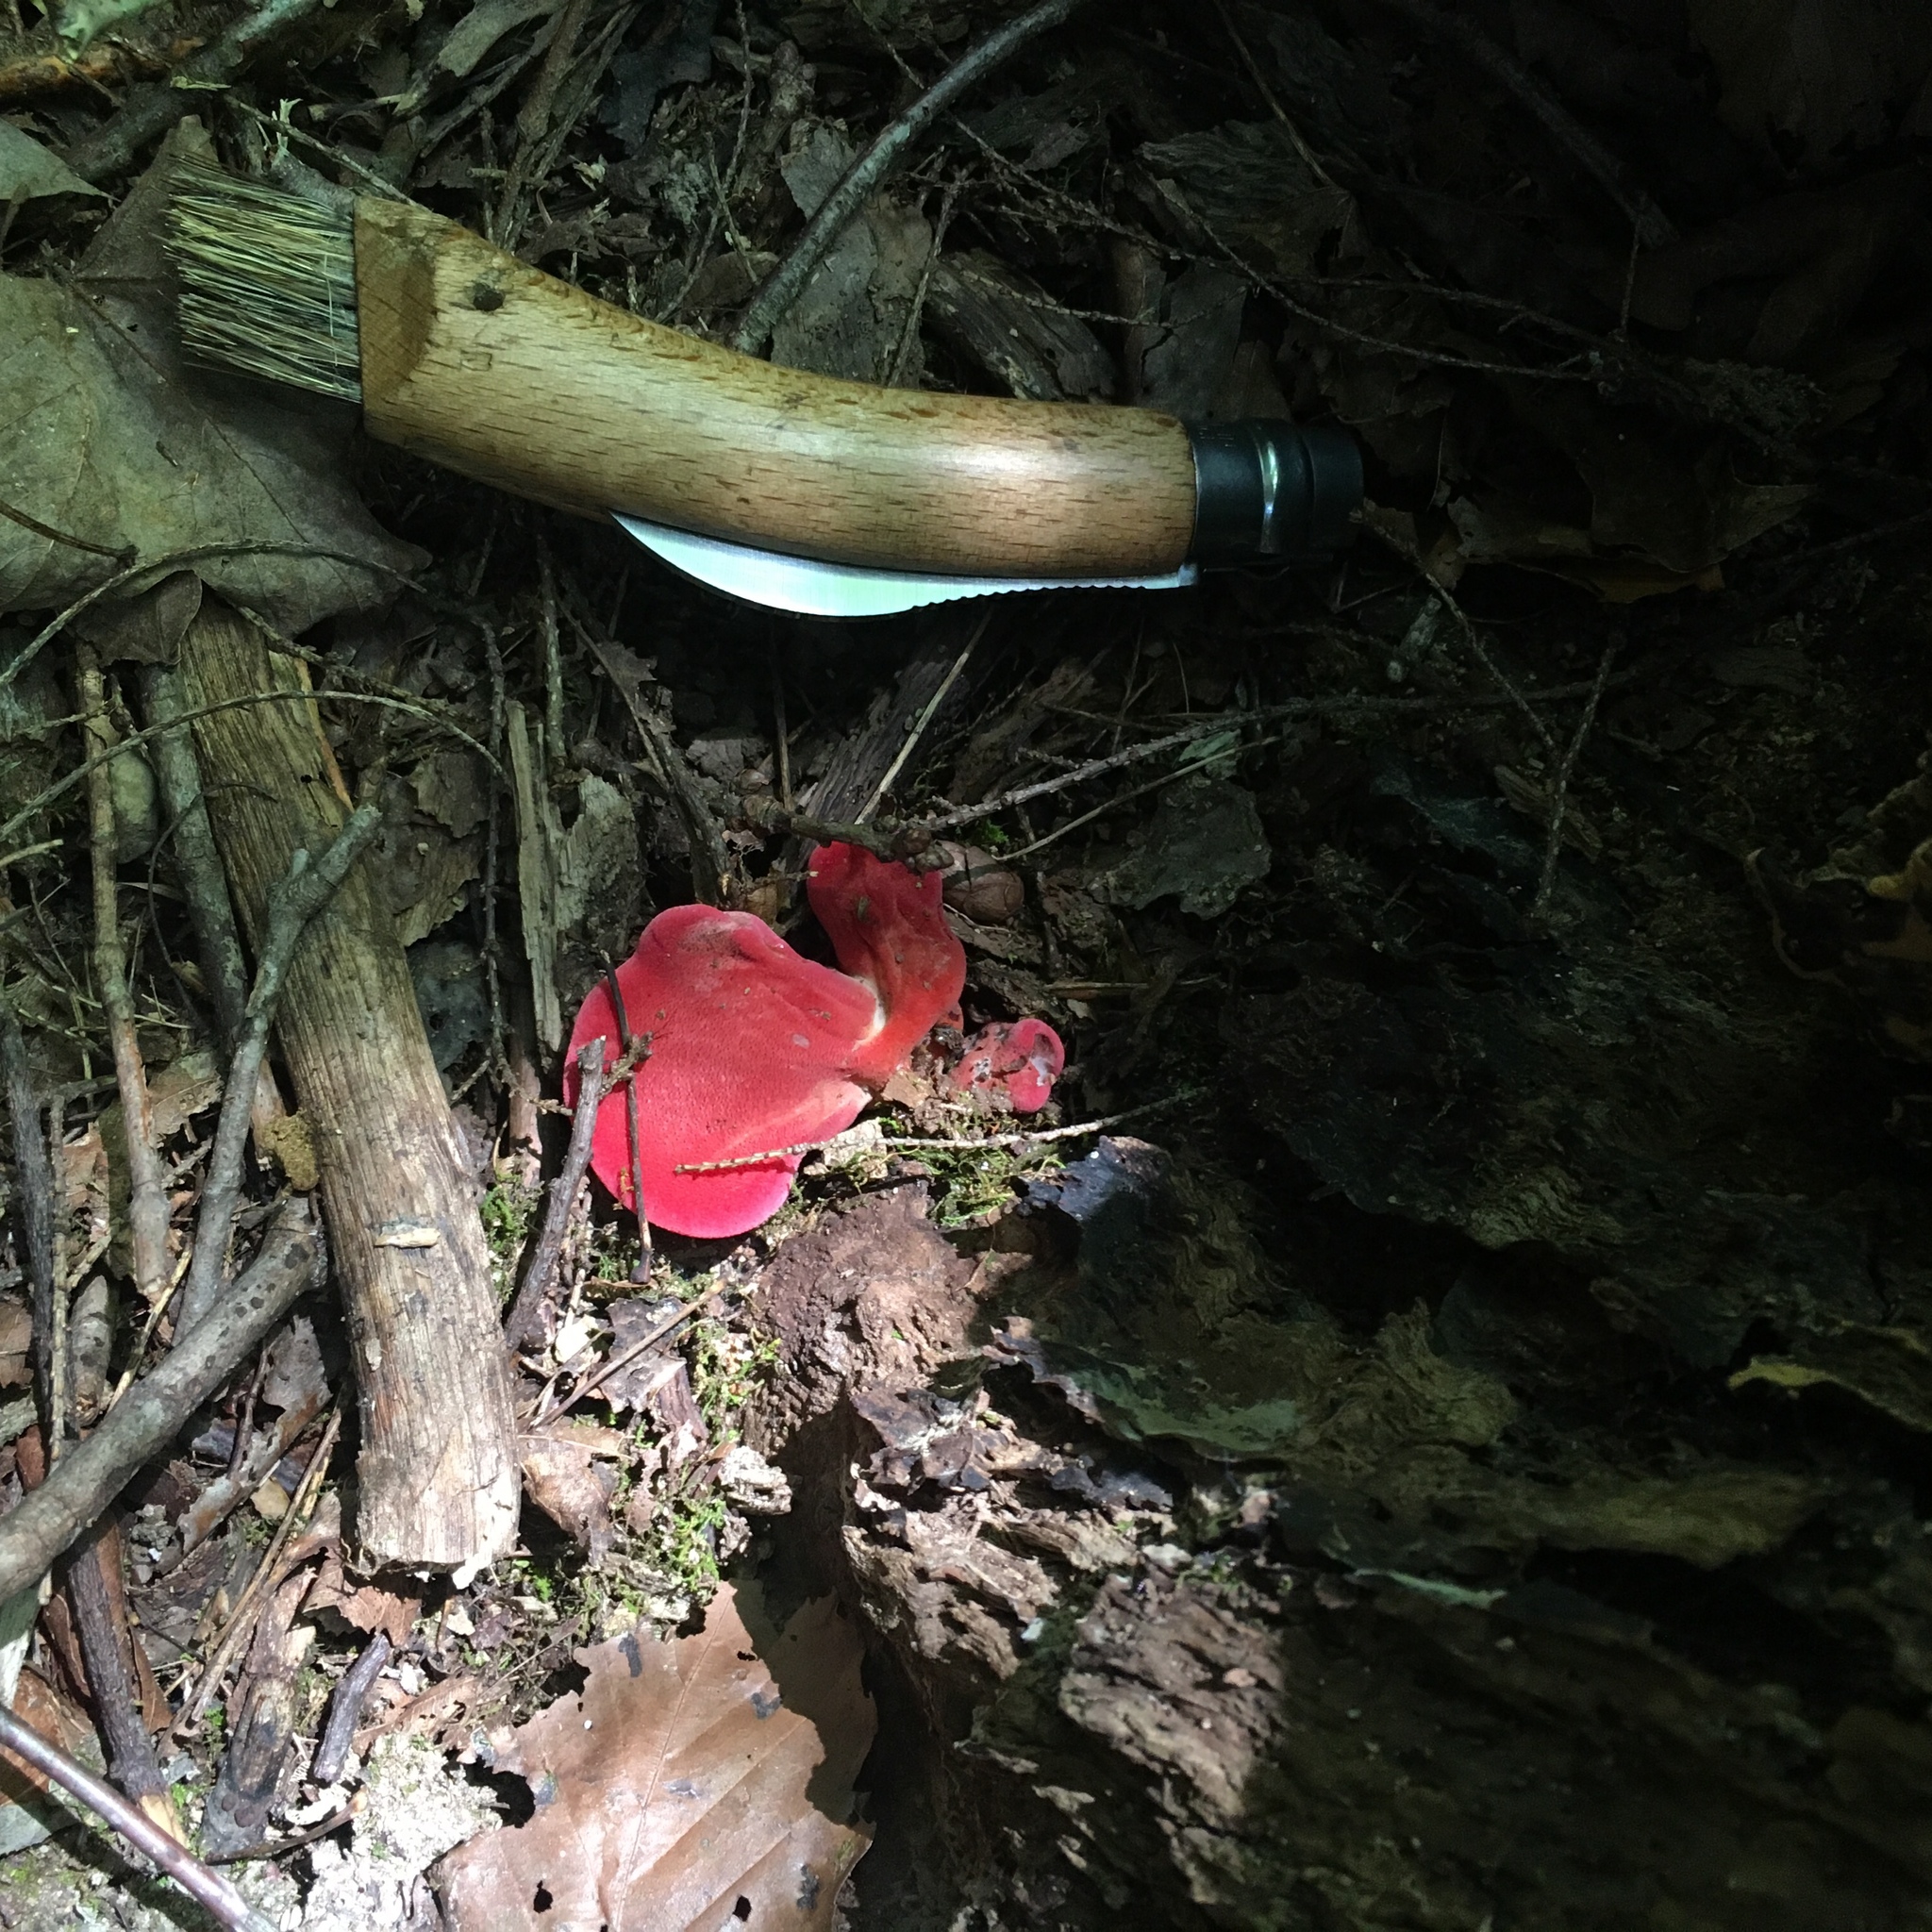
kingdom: Fungi
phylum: Basidiomycota
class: Agaricomycetes
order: Agaricales
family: Fistulinaceae
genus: Fistulina
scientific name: Fistulina hepatica
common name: Beef-steak fungus
